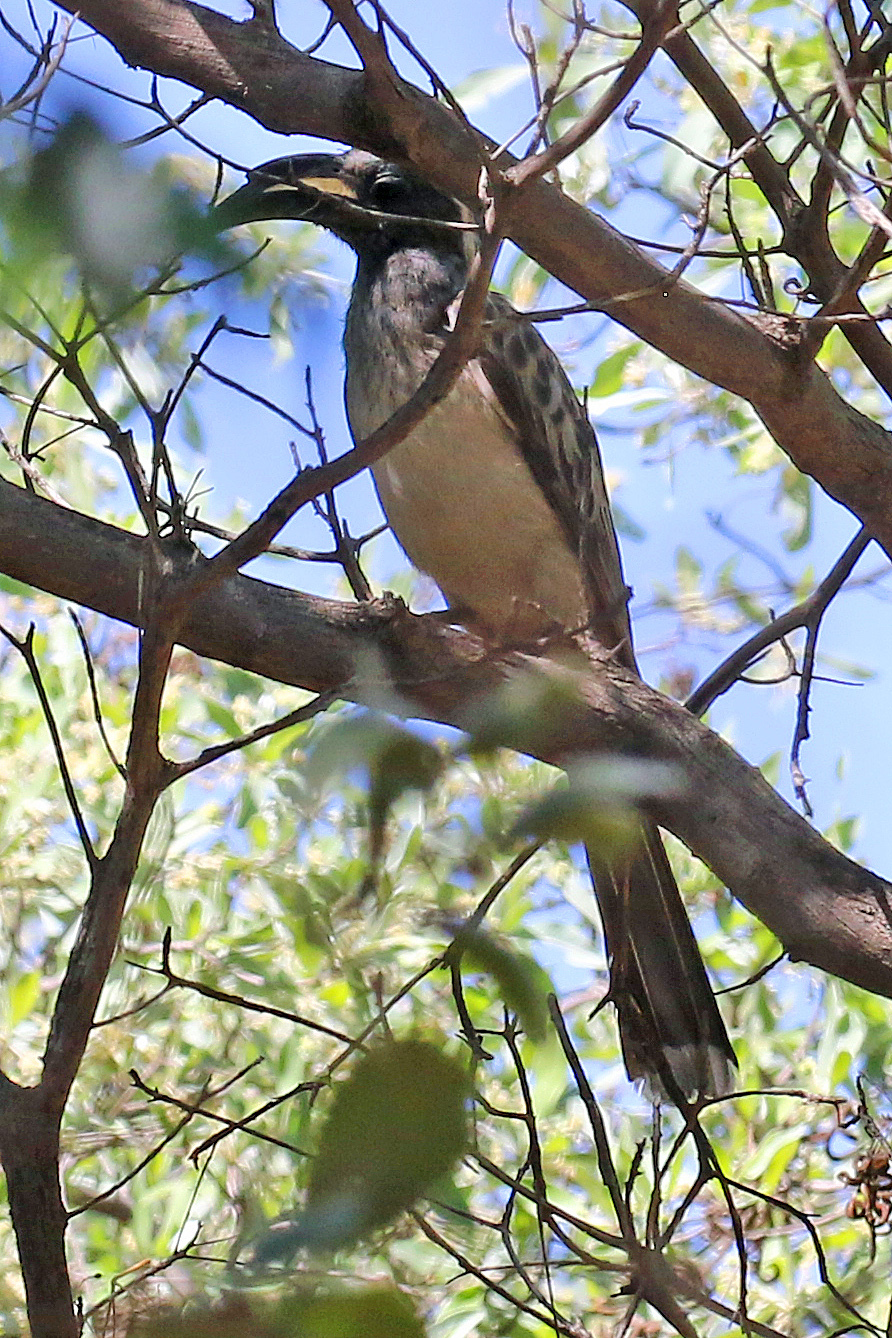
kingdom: Animalia
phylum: Chordata
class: Aves
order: Bucerotiformes
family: Bucerotidae
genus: Lophoceros
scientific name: Lophoceros nasutus
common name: African grey hornbill
